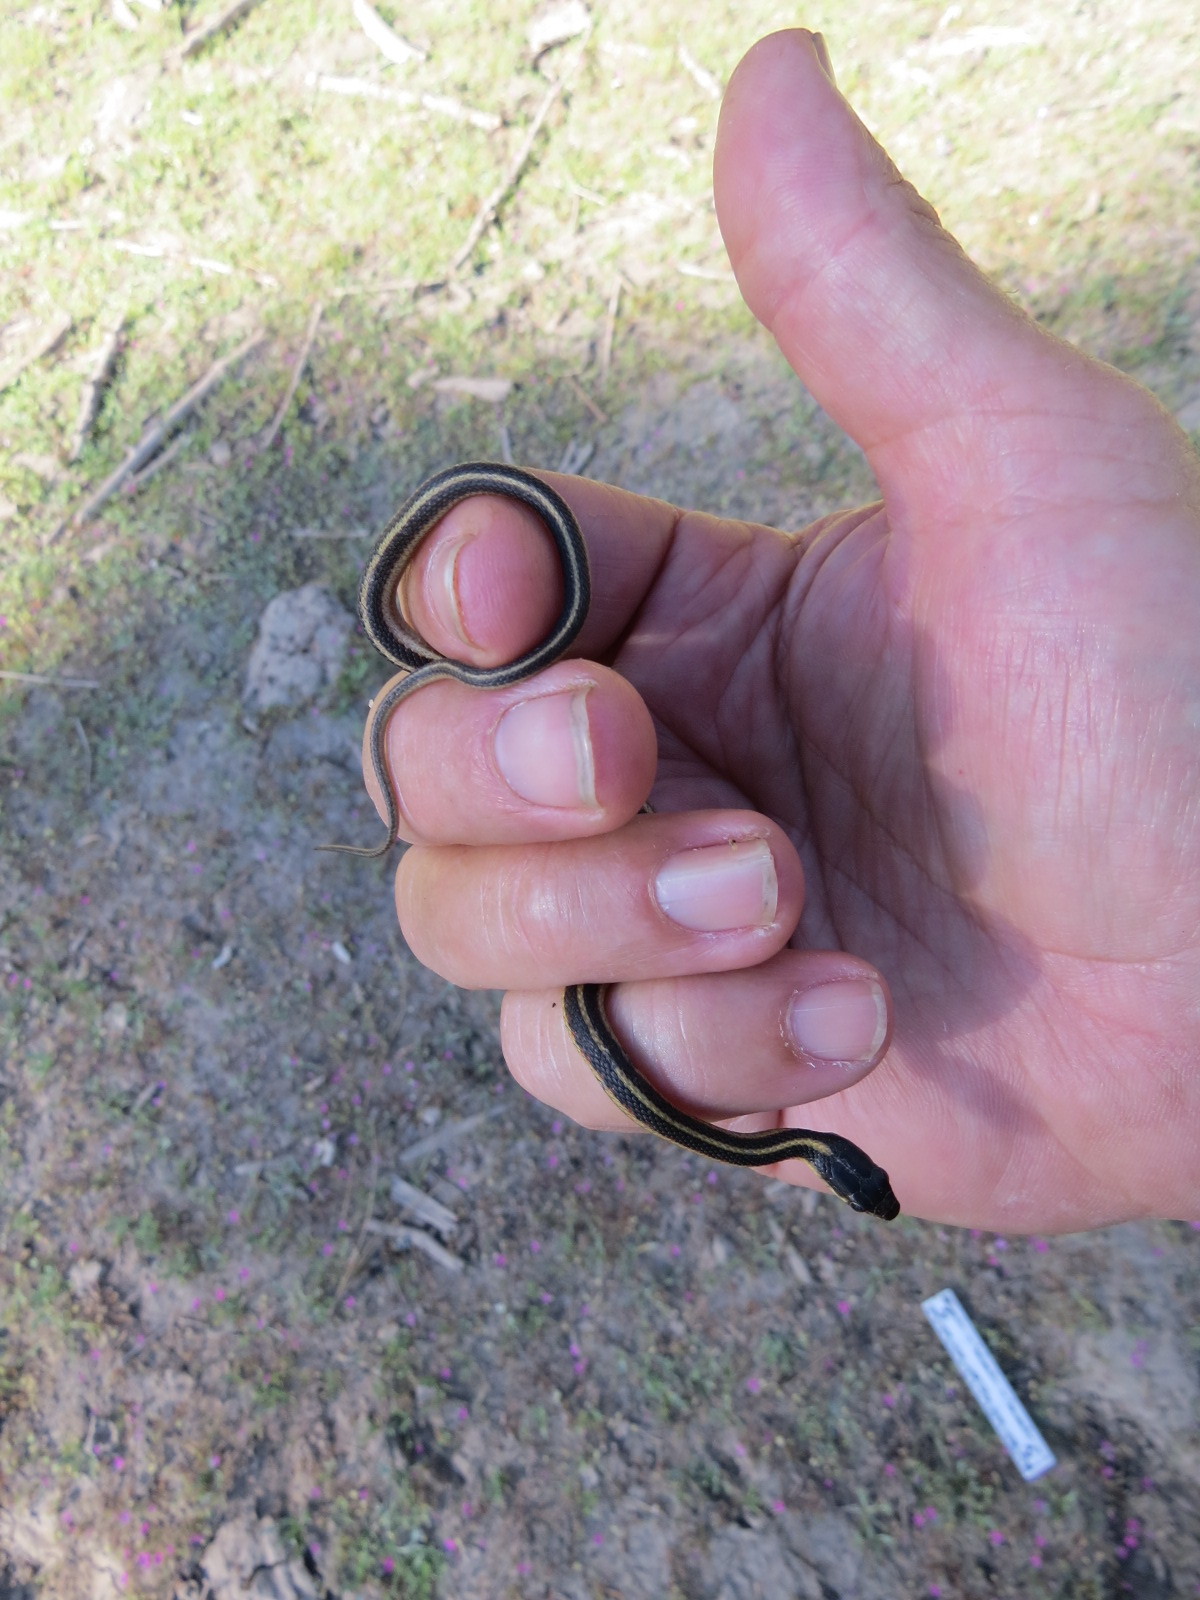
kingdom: Animalia
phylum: Chordata
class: Squamata
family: Colubridae
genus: Thamnophis
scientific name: Thamnophis sirtalis
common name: Common garter snake
